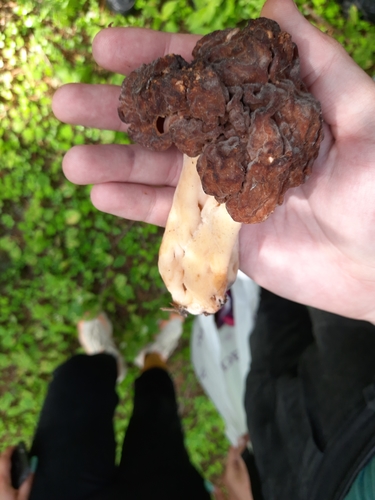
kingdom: Fungi
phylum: Ascomycota
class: Pezizomycetes
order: Pezizales
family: Discinaceae
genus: Gyromitra
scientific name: Gyromitra
